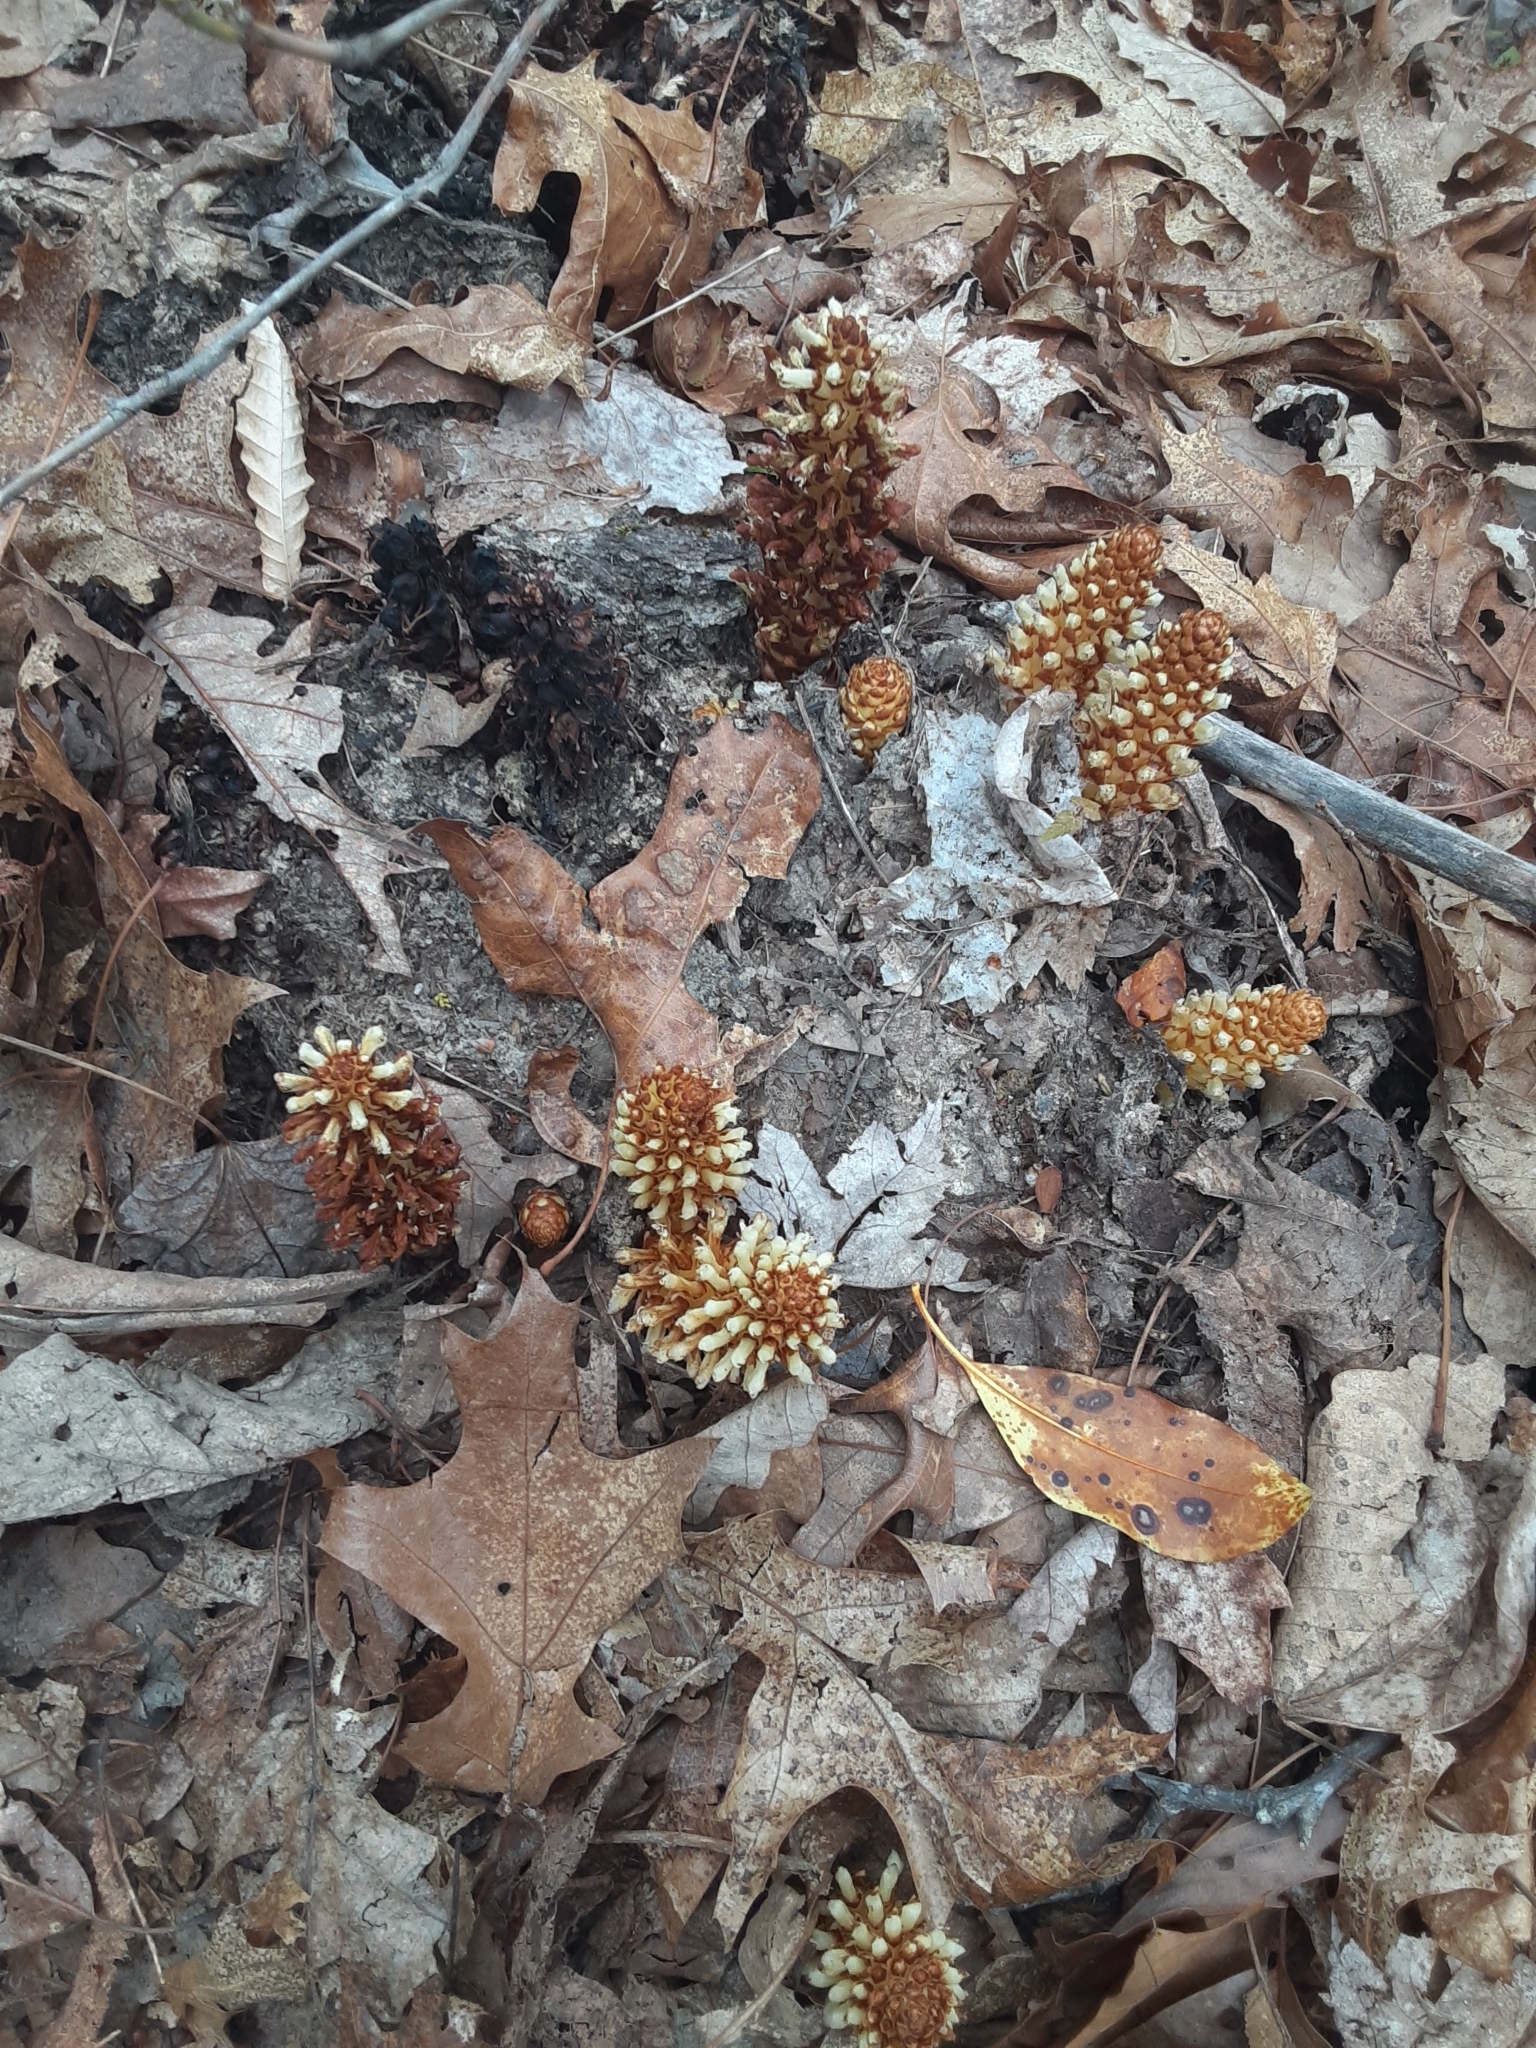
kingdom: Plantae
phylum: Tracheophyta
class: Magnoliopsida
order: Lamiales
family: Orobanchaceae
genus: Conopholis
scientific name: Conopholis americana
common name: American cancer-root
